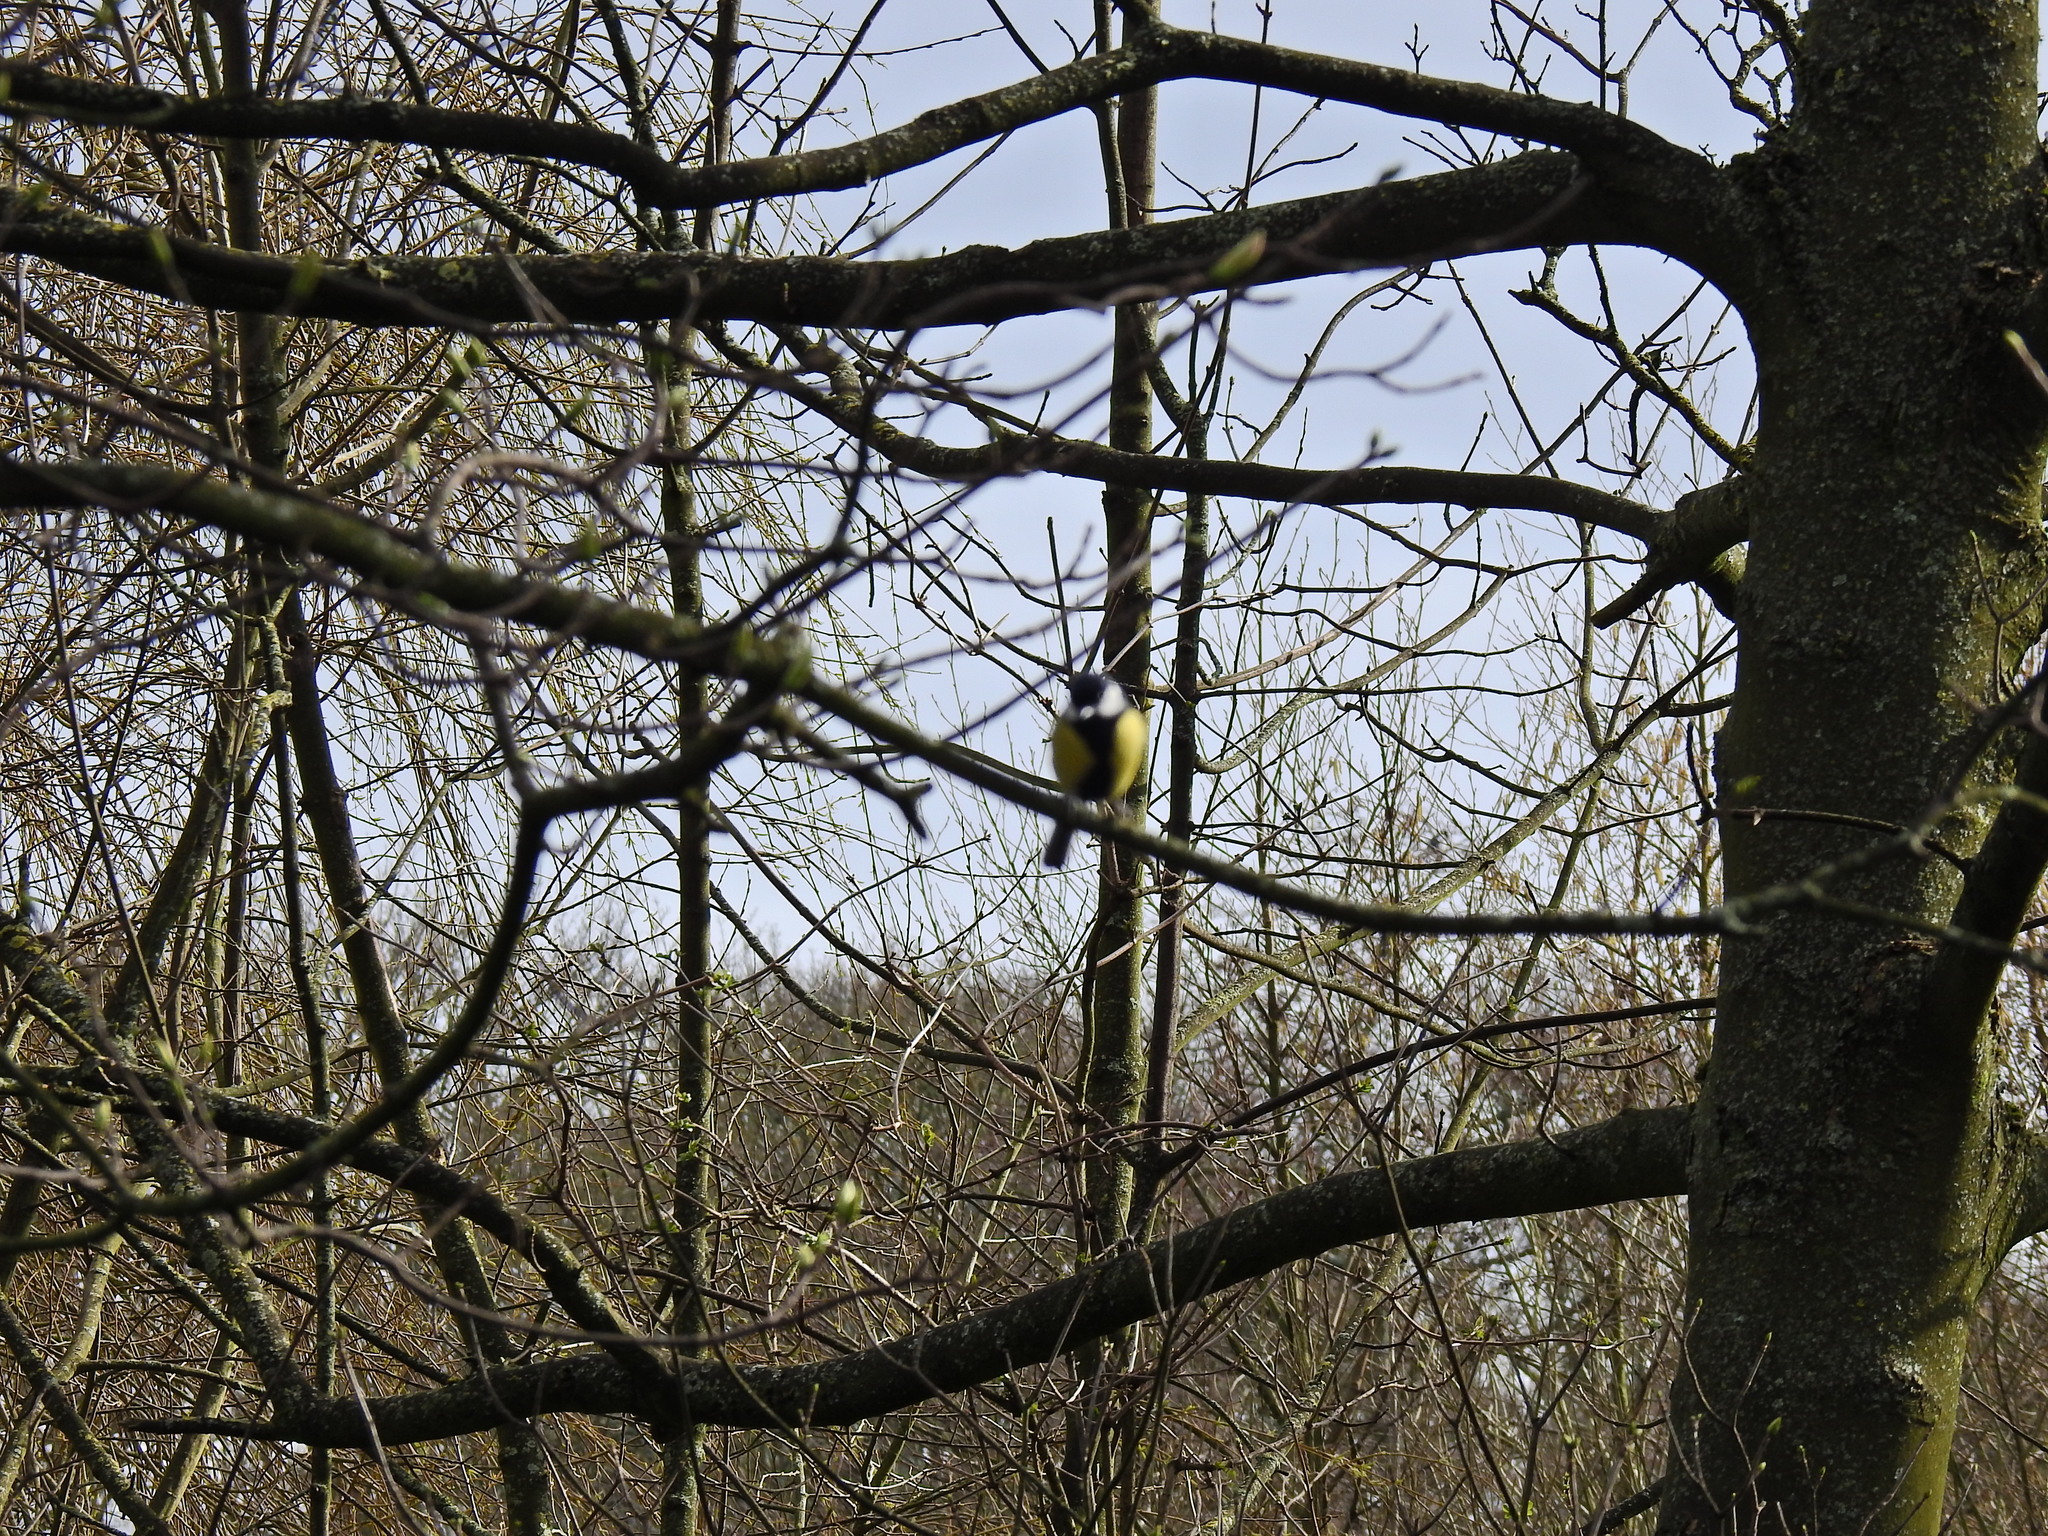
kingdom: Animalia
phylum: Chordata
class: Aves
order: Passeriformes
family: Paridae
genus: Parus
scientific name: Parus major
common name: Great tit
